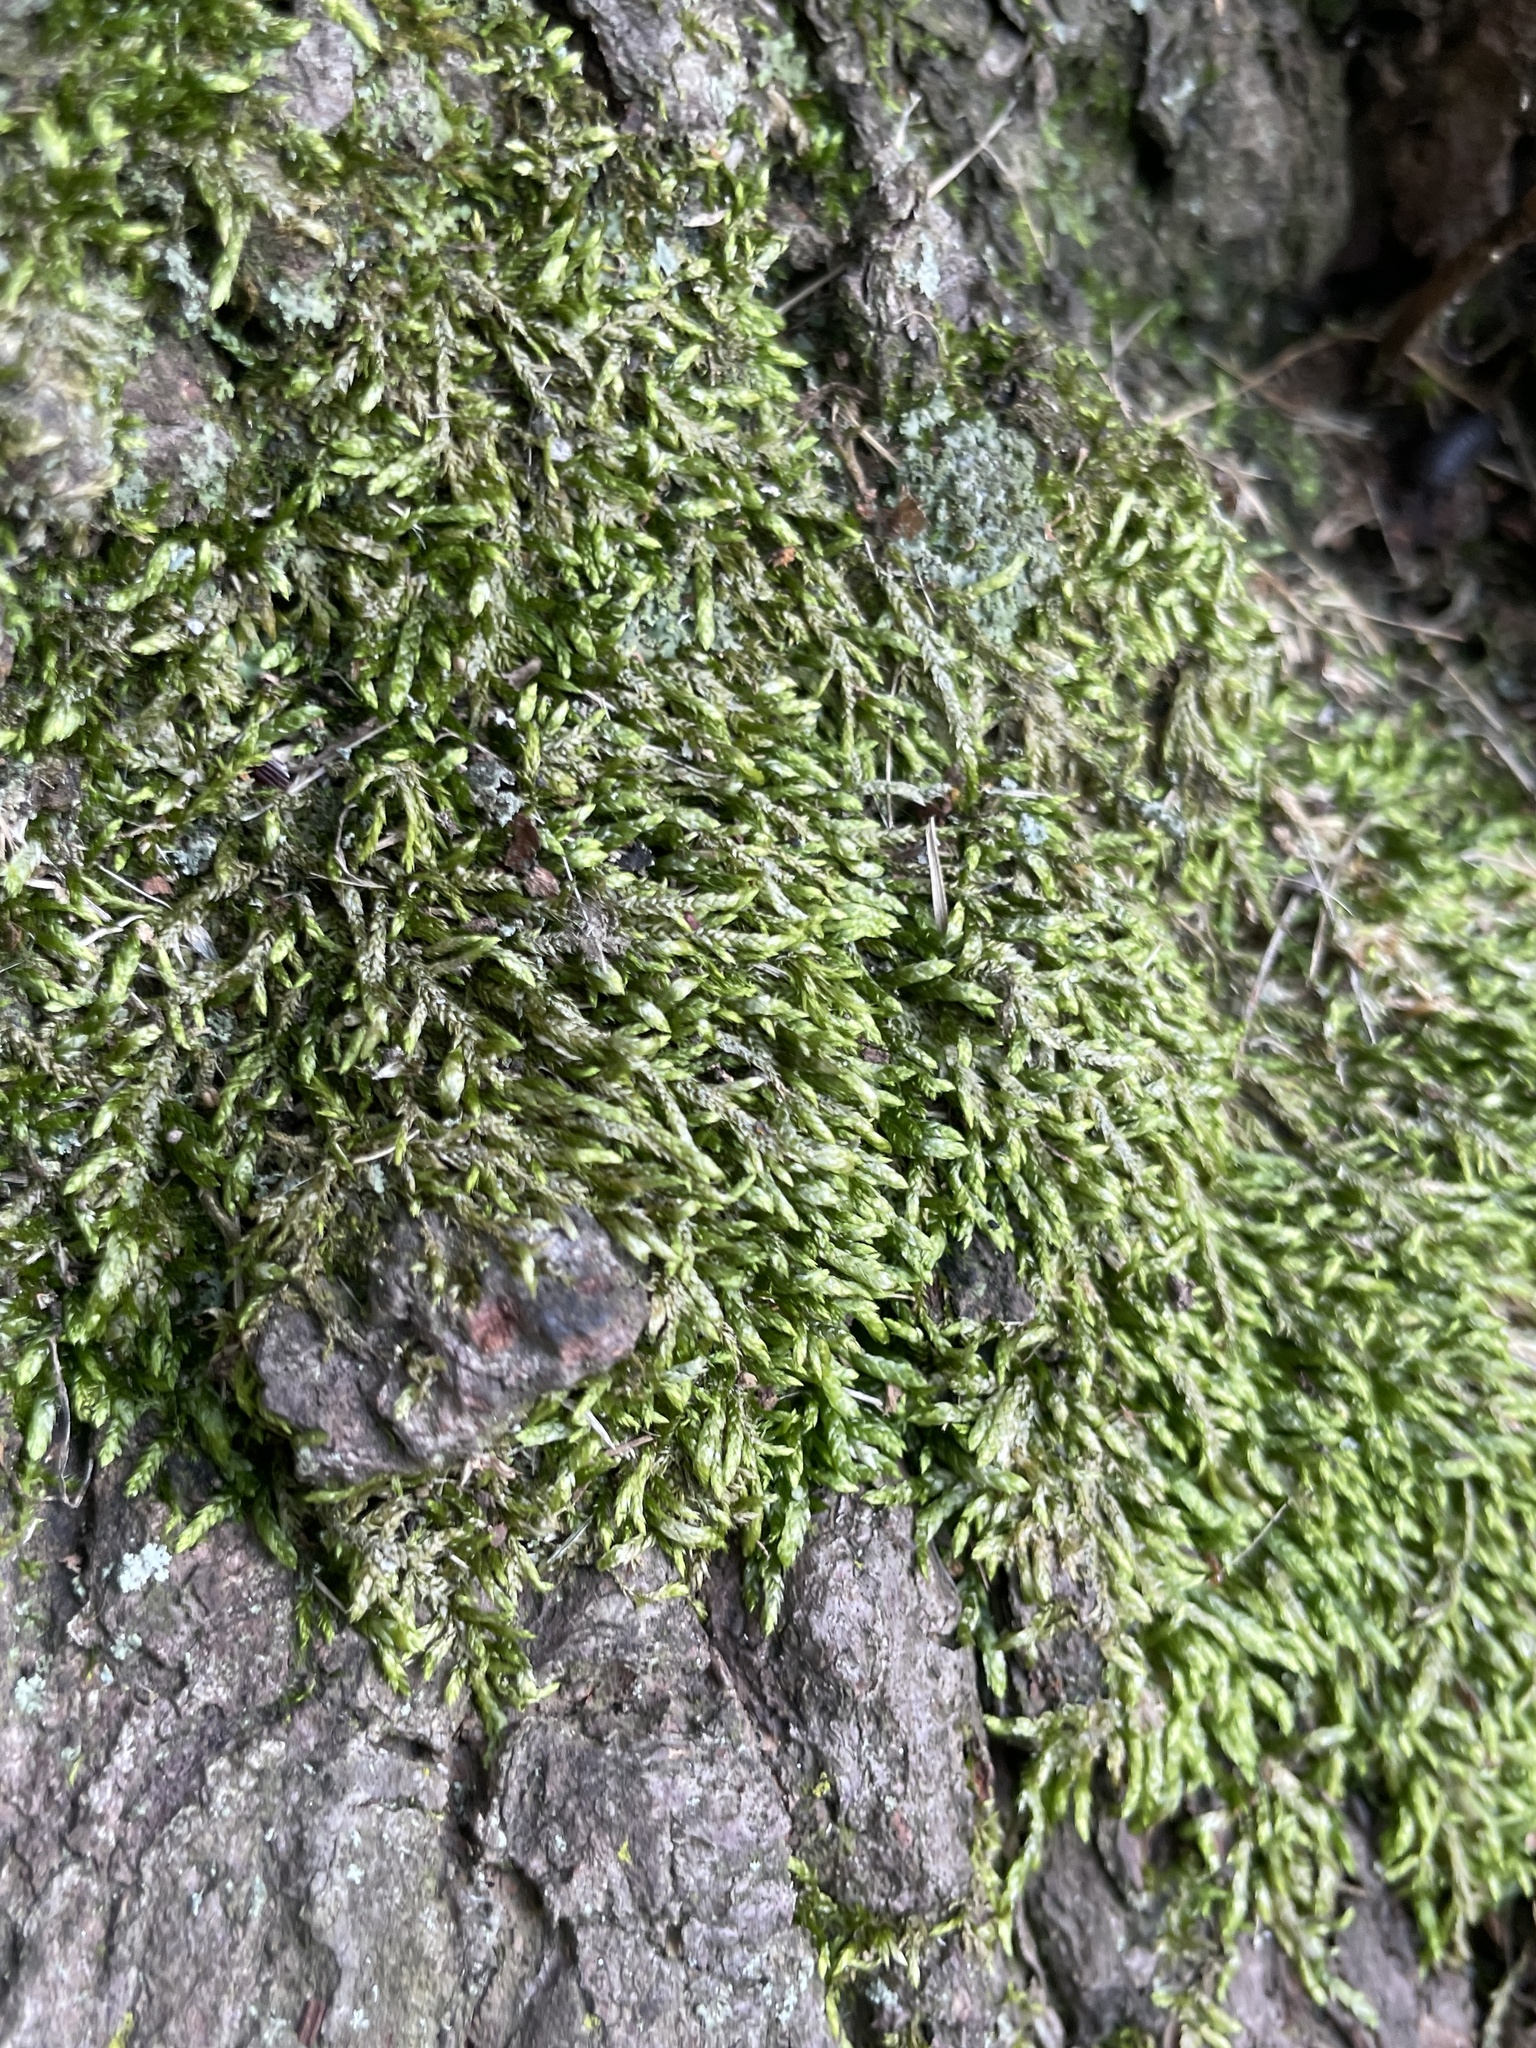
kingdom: Plantae
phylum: Bryophyta
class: Bryopsida
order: Hypnales
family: Entodontaceae
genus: Entodon
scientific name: Entodon seductrix
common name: Round-stemmed entodon moss
